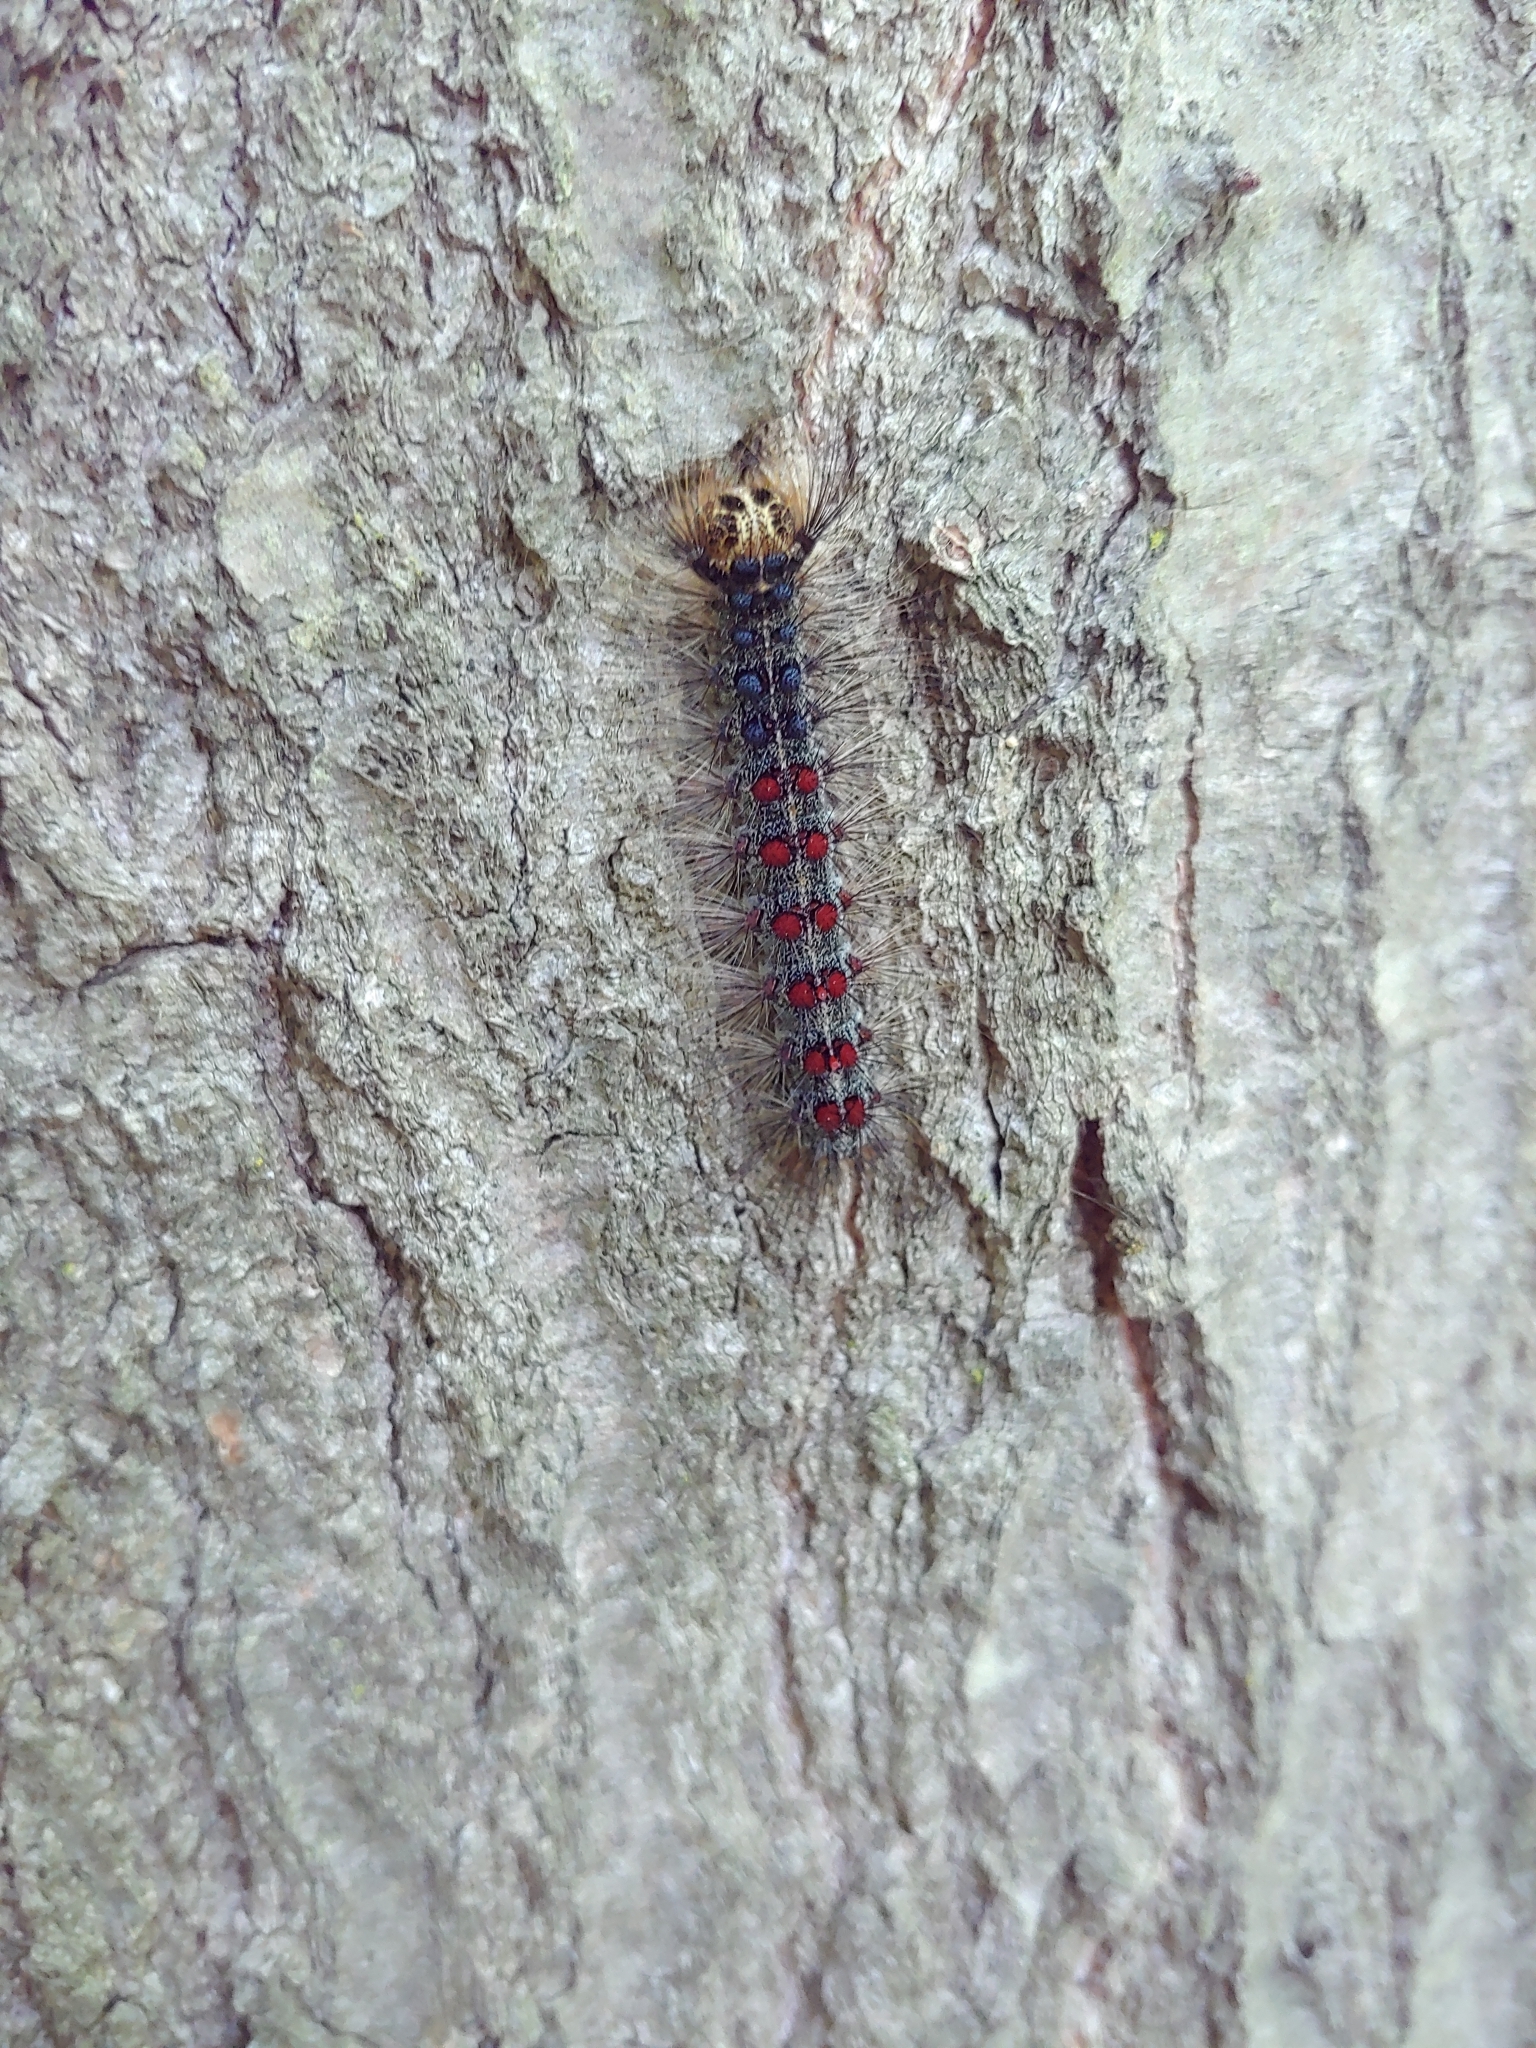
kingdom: Animalia
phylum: Arthropoda
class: Insecta
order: Lepidoptera
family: Erebidae
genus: Lymantria
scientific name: Lymantria dispar
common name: Gypsy moth
